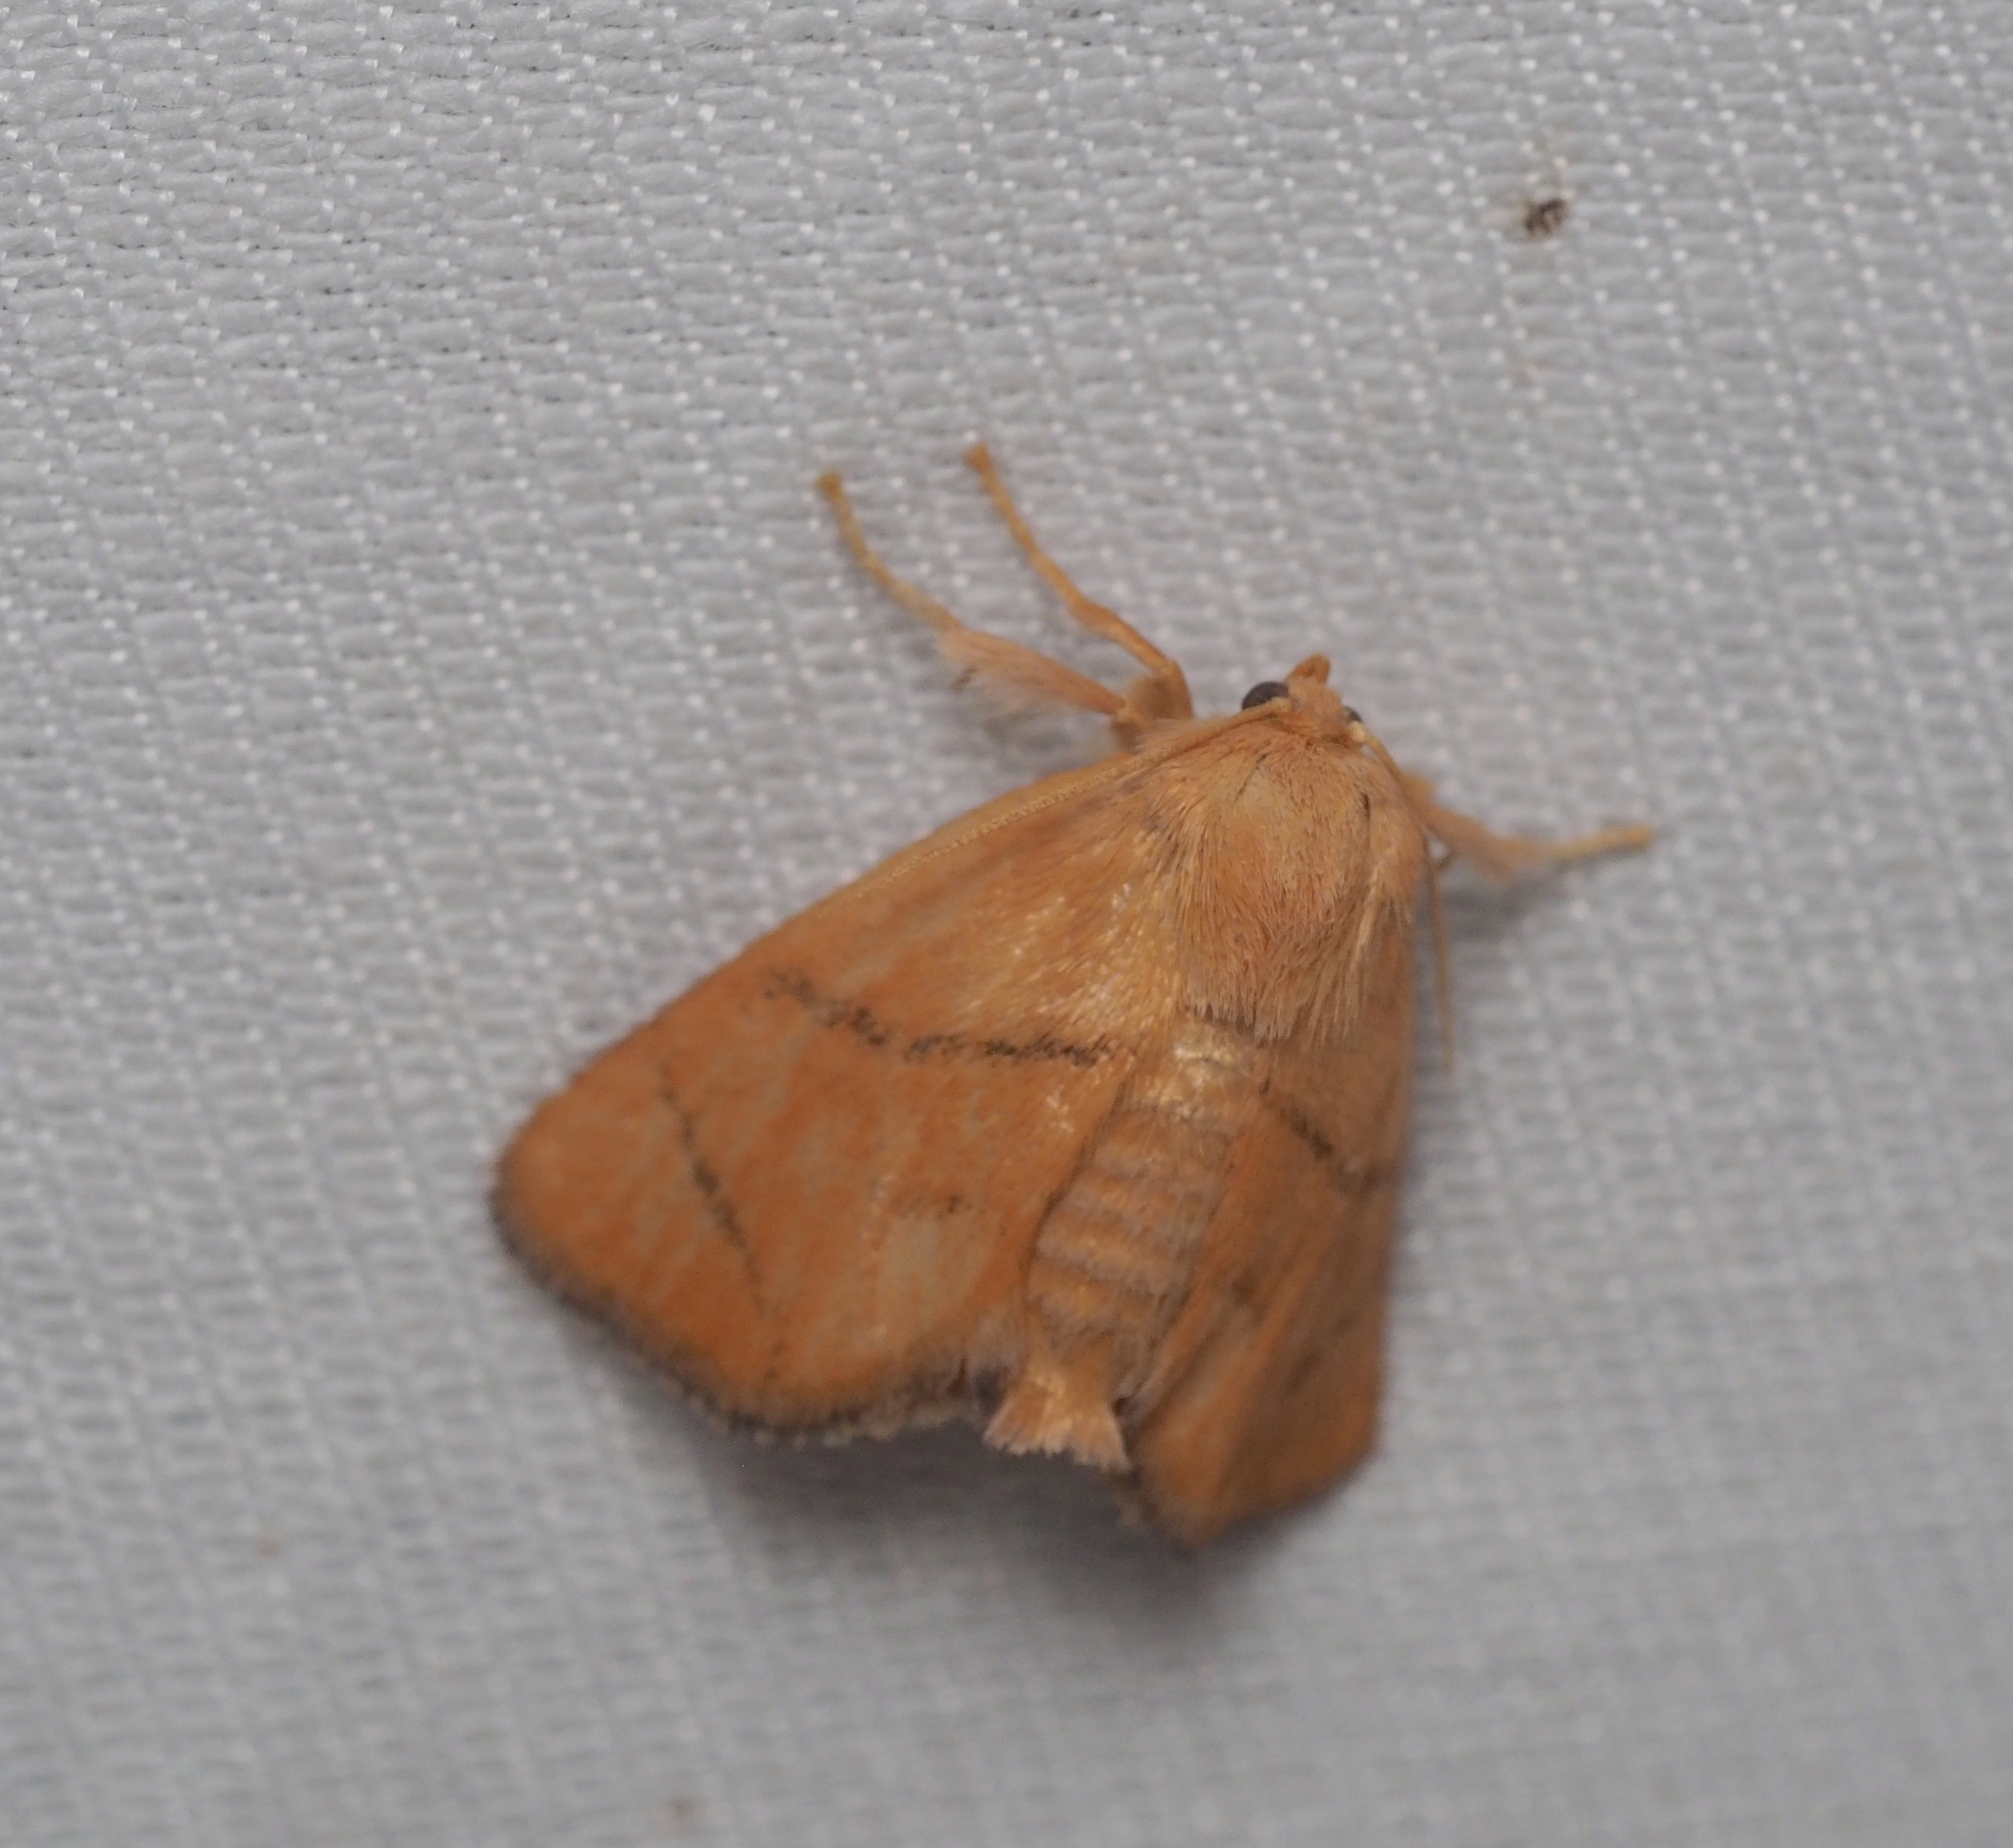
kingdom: Animalia
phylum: Arthropoda
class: Insecta
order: Lepidoptera
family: Limacodidae
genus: Apoda
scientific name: Apoda limacodes
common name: Festoon
